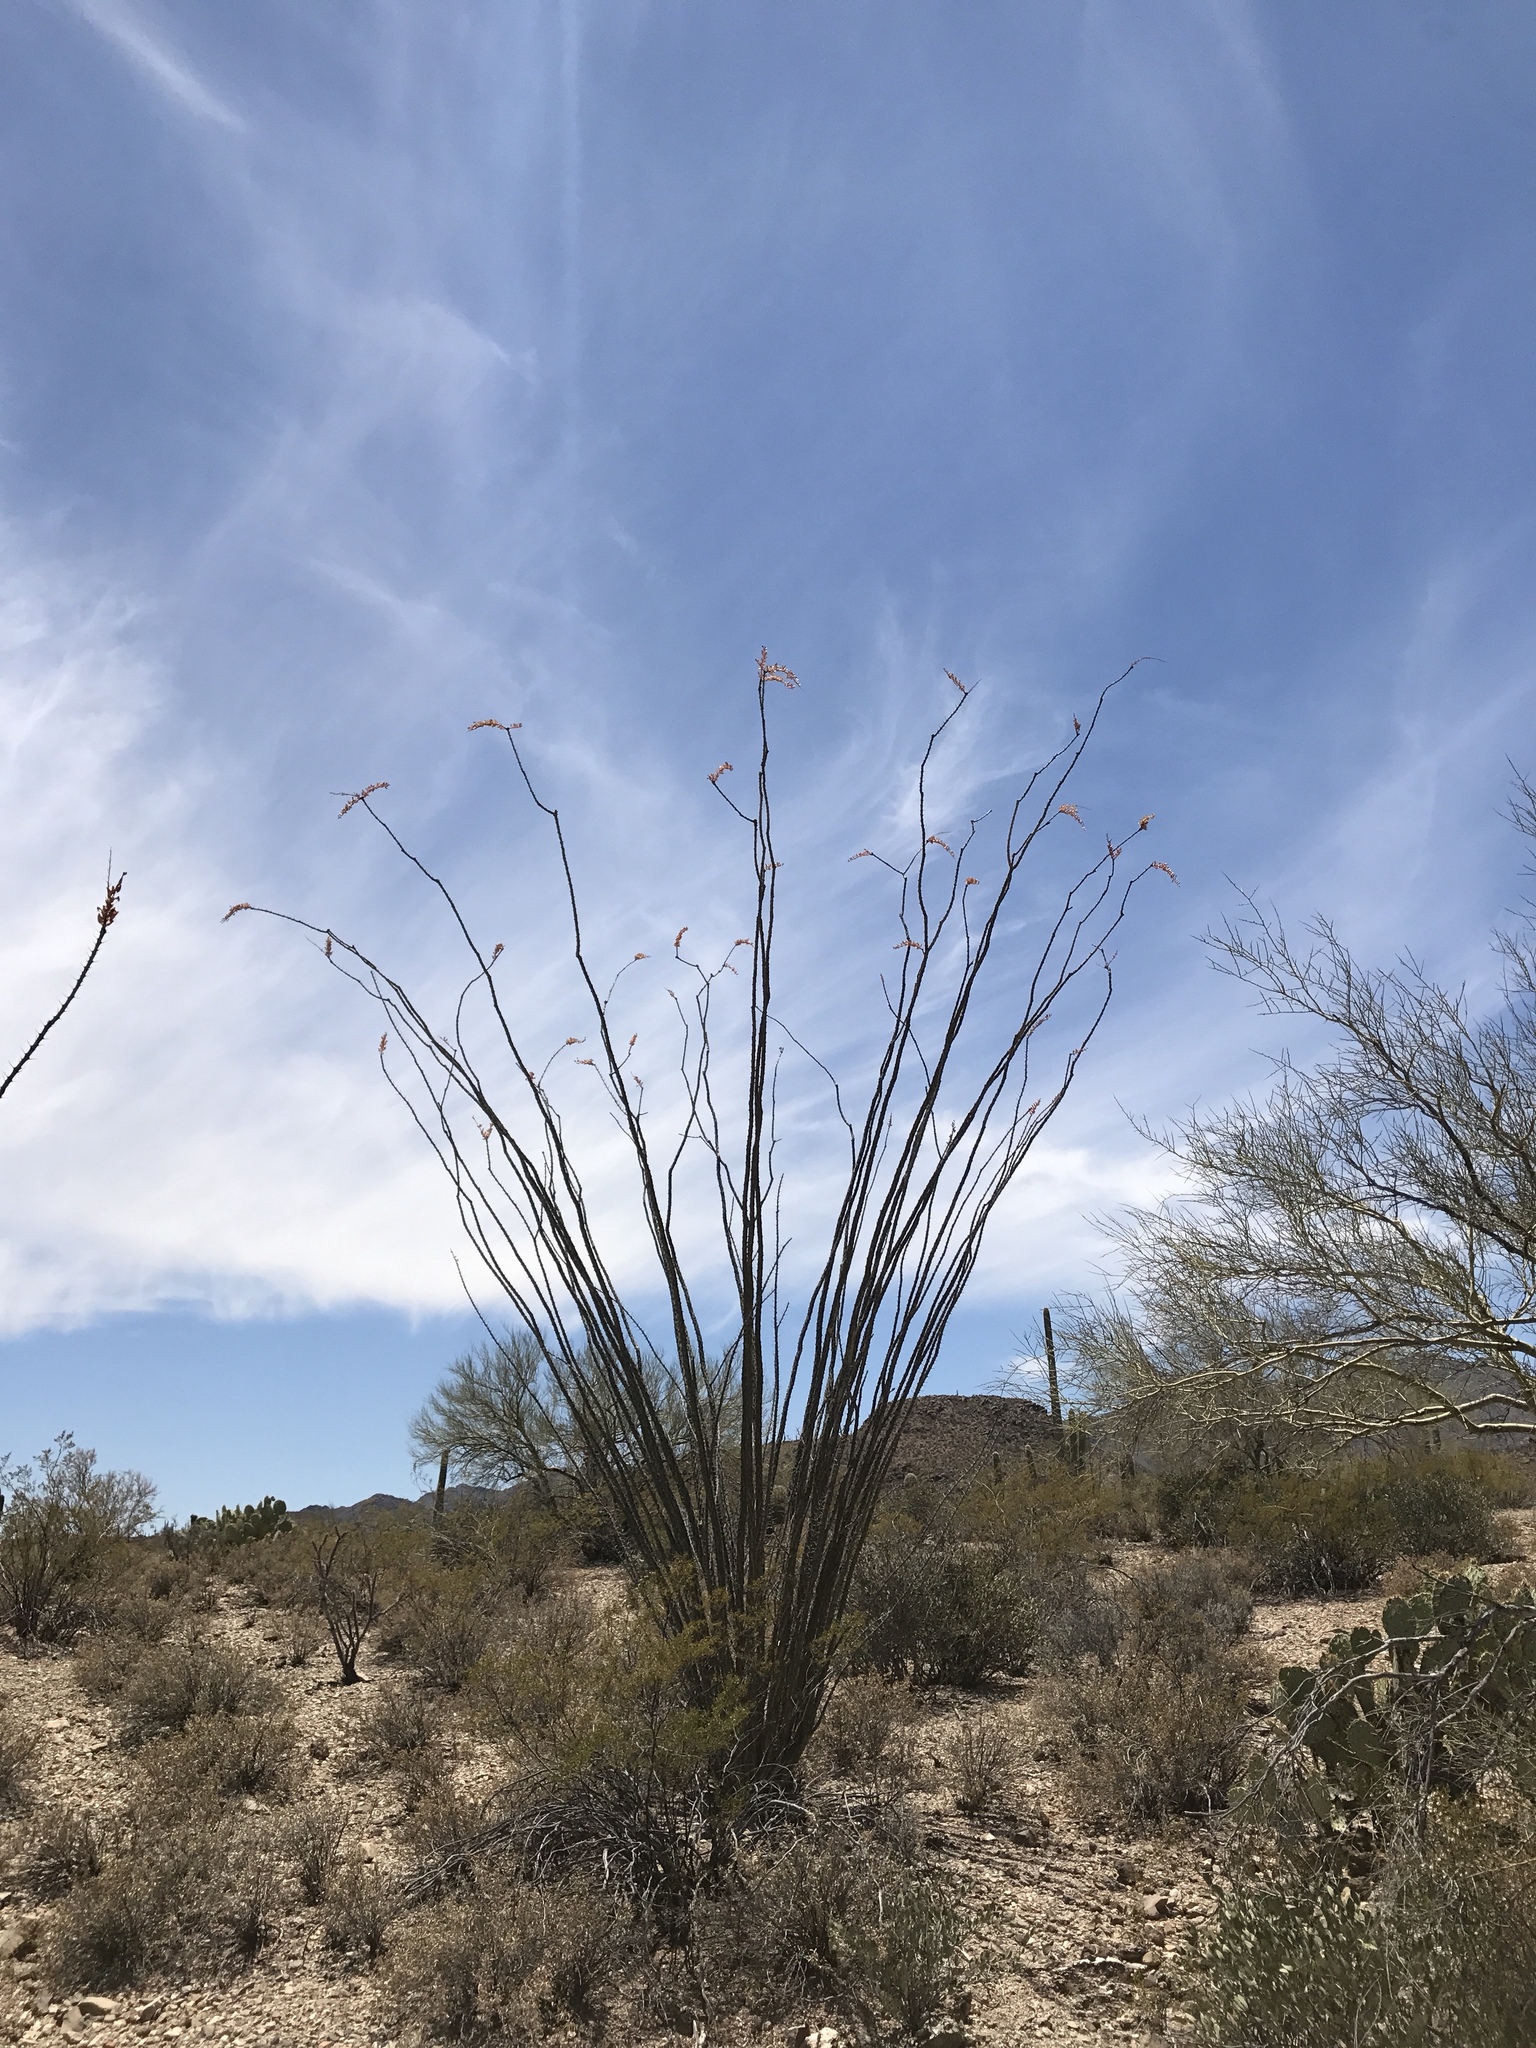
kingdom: Plantae
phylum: Tracheophyta
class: Magnoliopsida
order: Ericales
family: Fouquieriaceae
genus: Fouquieria
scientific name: Fouquieria splendens
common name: Vine-cactus
